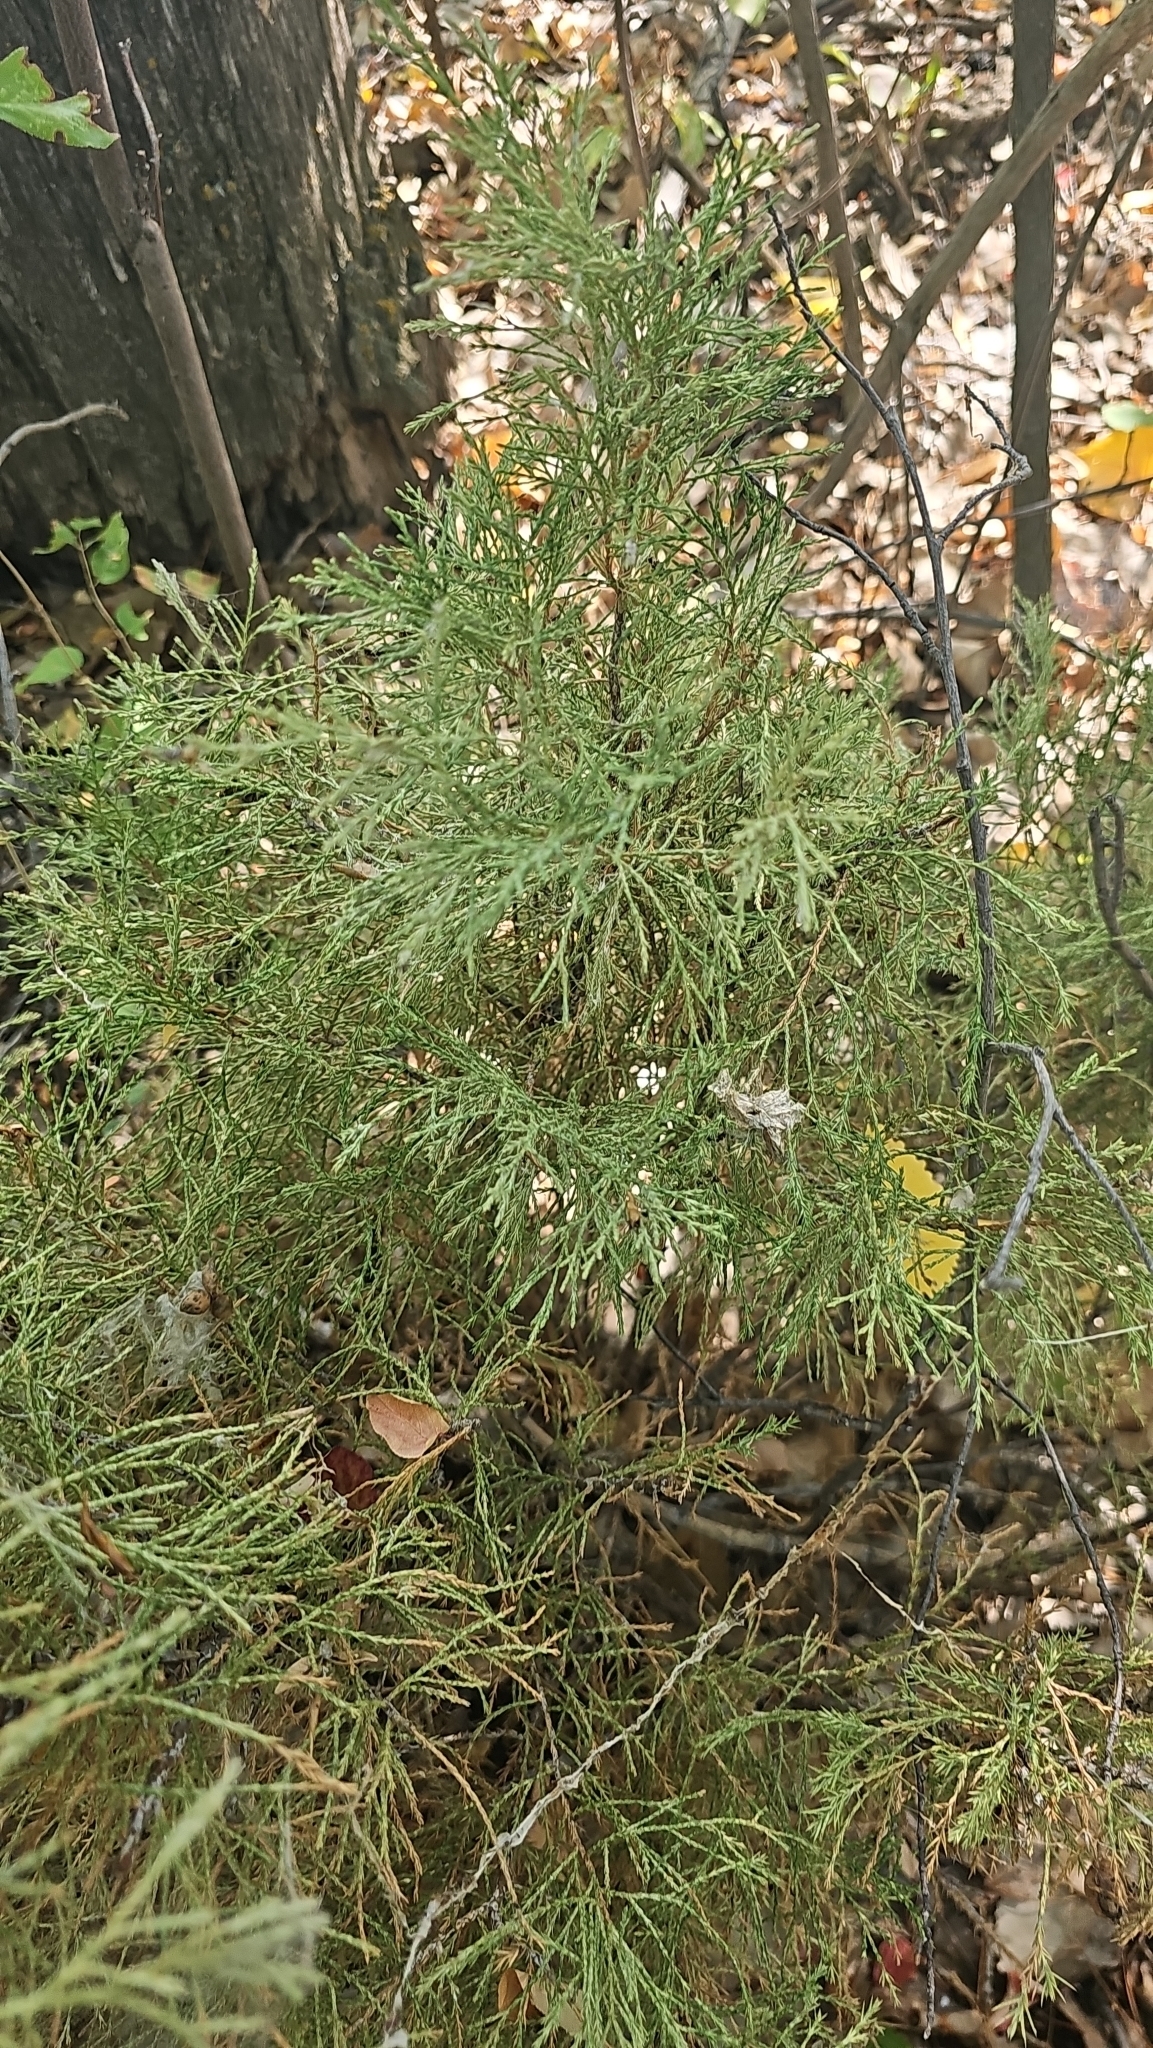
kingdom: Plantae
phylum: Tracheophyta
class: Pinopsida
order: Pinales
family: Cupressaceae
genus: Juniperus
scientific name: Juniperus scopulorum
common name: Rocky mountain juniper
